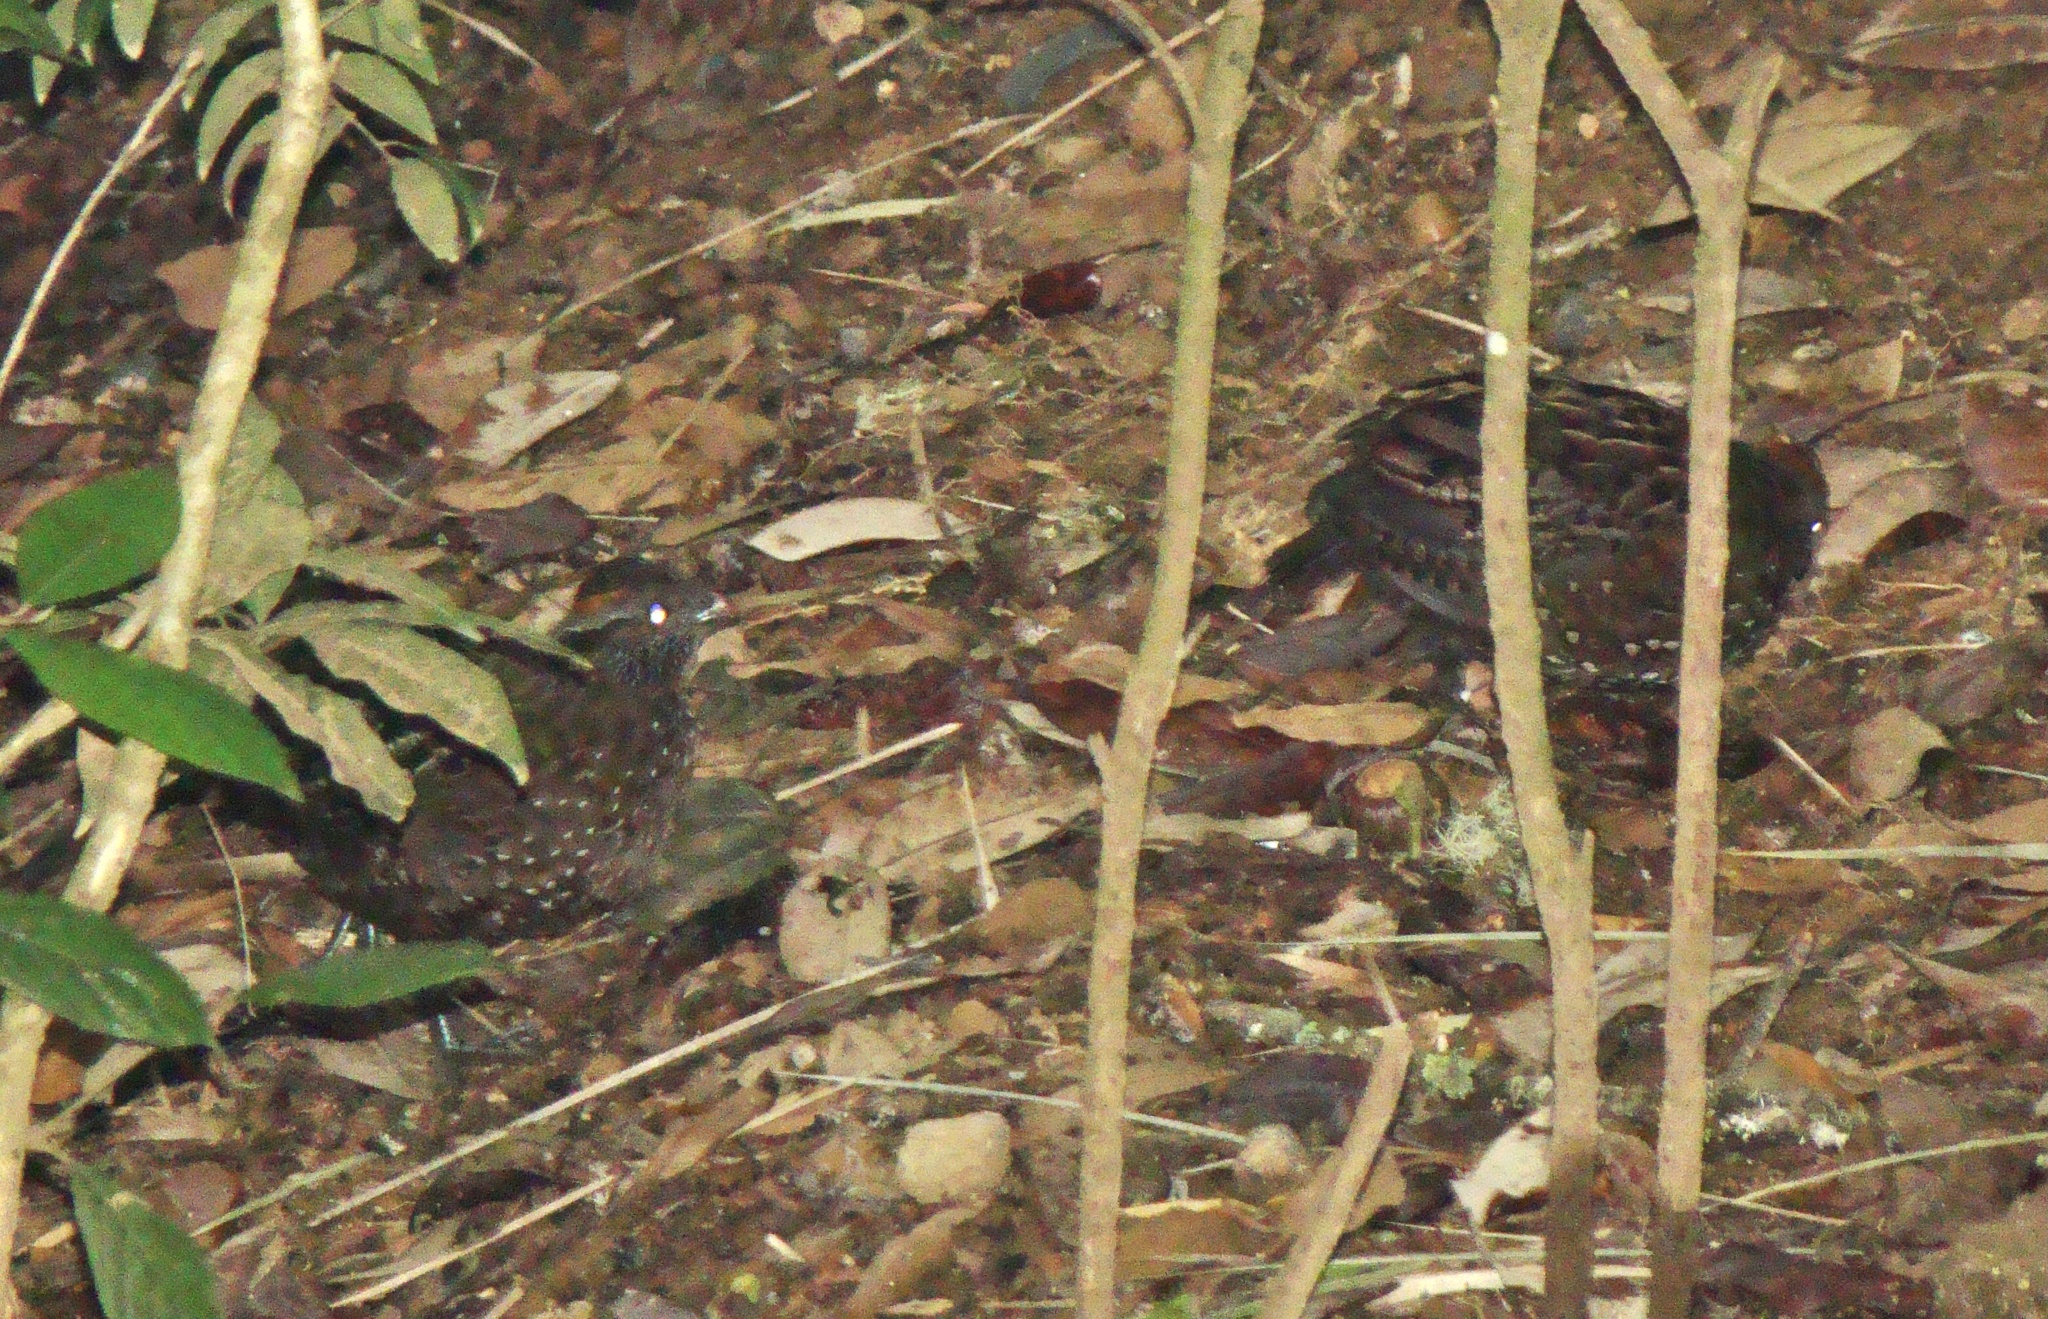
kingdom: Animalia
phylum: Chordata
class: Aves
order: Galliformes
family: Odontophoridae
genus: Odontophorus
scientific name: Odontophorus guttatus
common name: Spotted wood-quail
